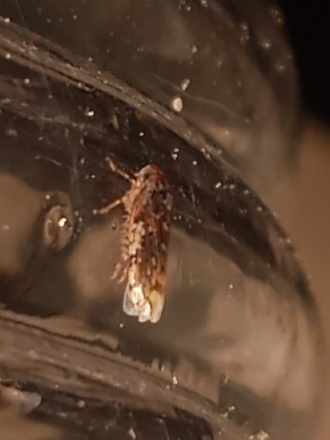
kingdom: Animalia
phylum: Arthropoda
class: Insecta
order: Hemiptera
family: Cicadellidae
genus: Xestocephalus
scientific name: Xestocephalus tessellatus
